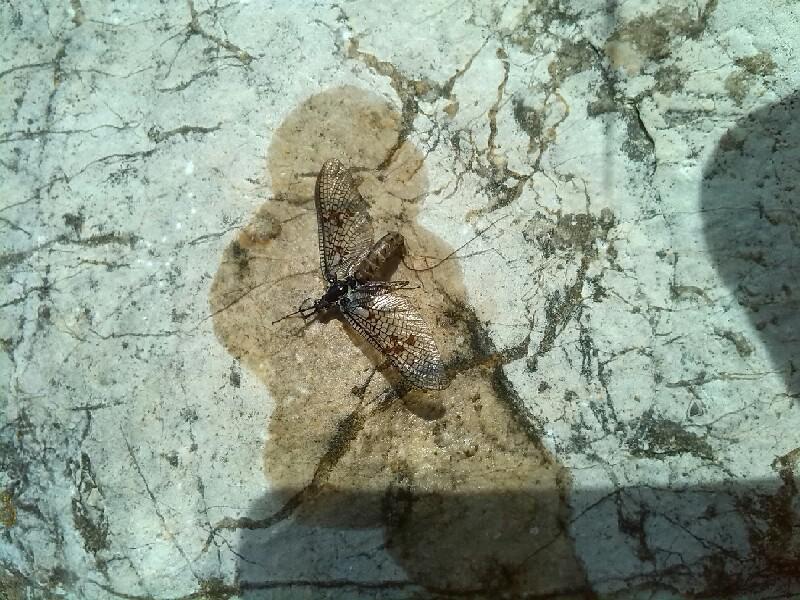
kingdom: Animalia
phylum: Arthropoda
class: Insecta
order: Ephemeroptera
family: Ephemeridae
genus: Ephemera
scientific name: Ephemera vulgata
